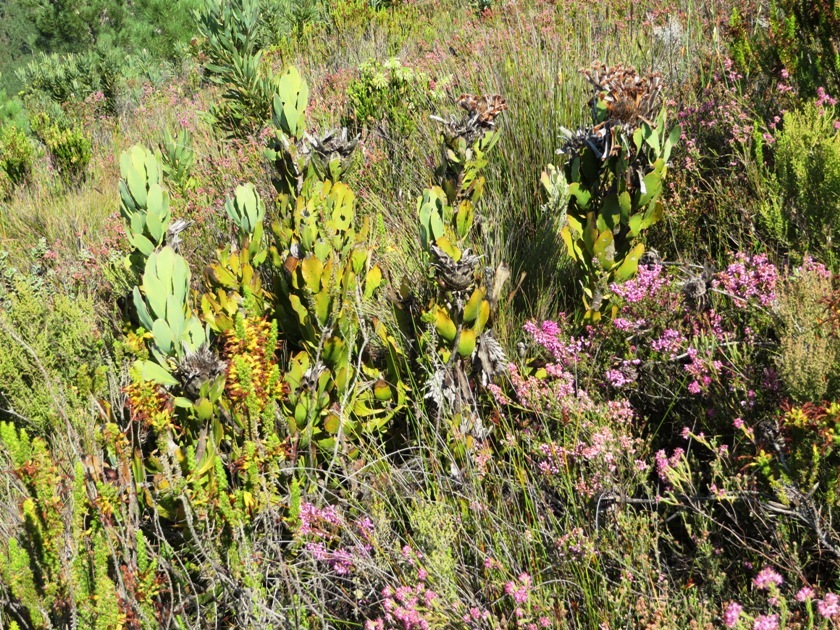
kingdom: Plantae
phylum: Tracheophyta
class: Magnoliopsida
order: Proteales
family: Proteaceae
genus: Protea
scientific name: Protea speciosa
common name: Brown-beard sugarbush
